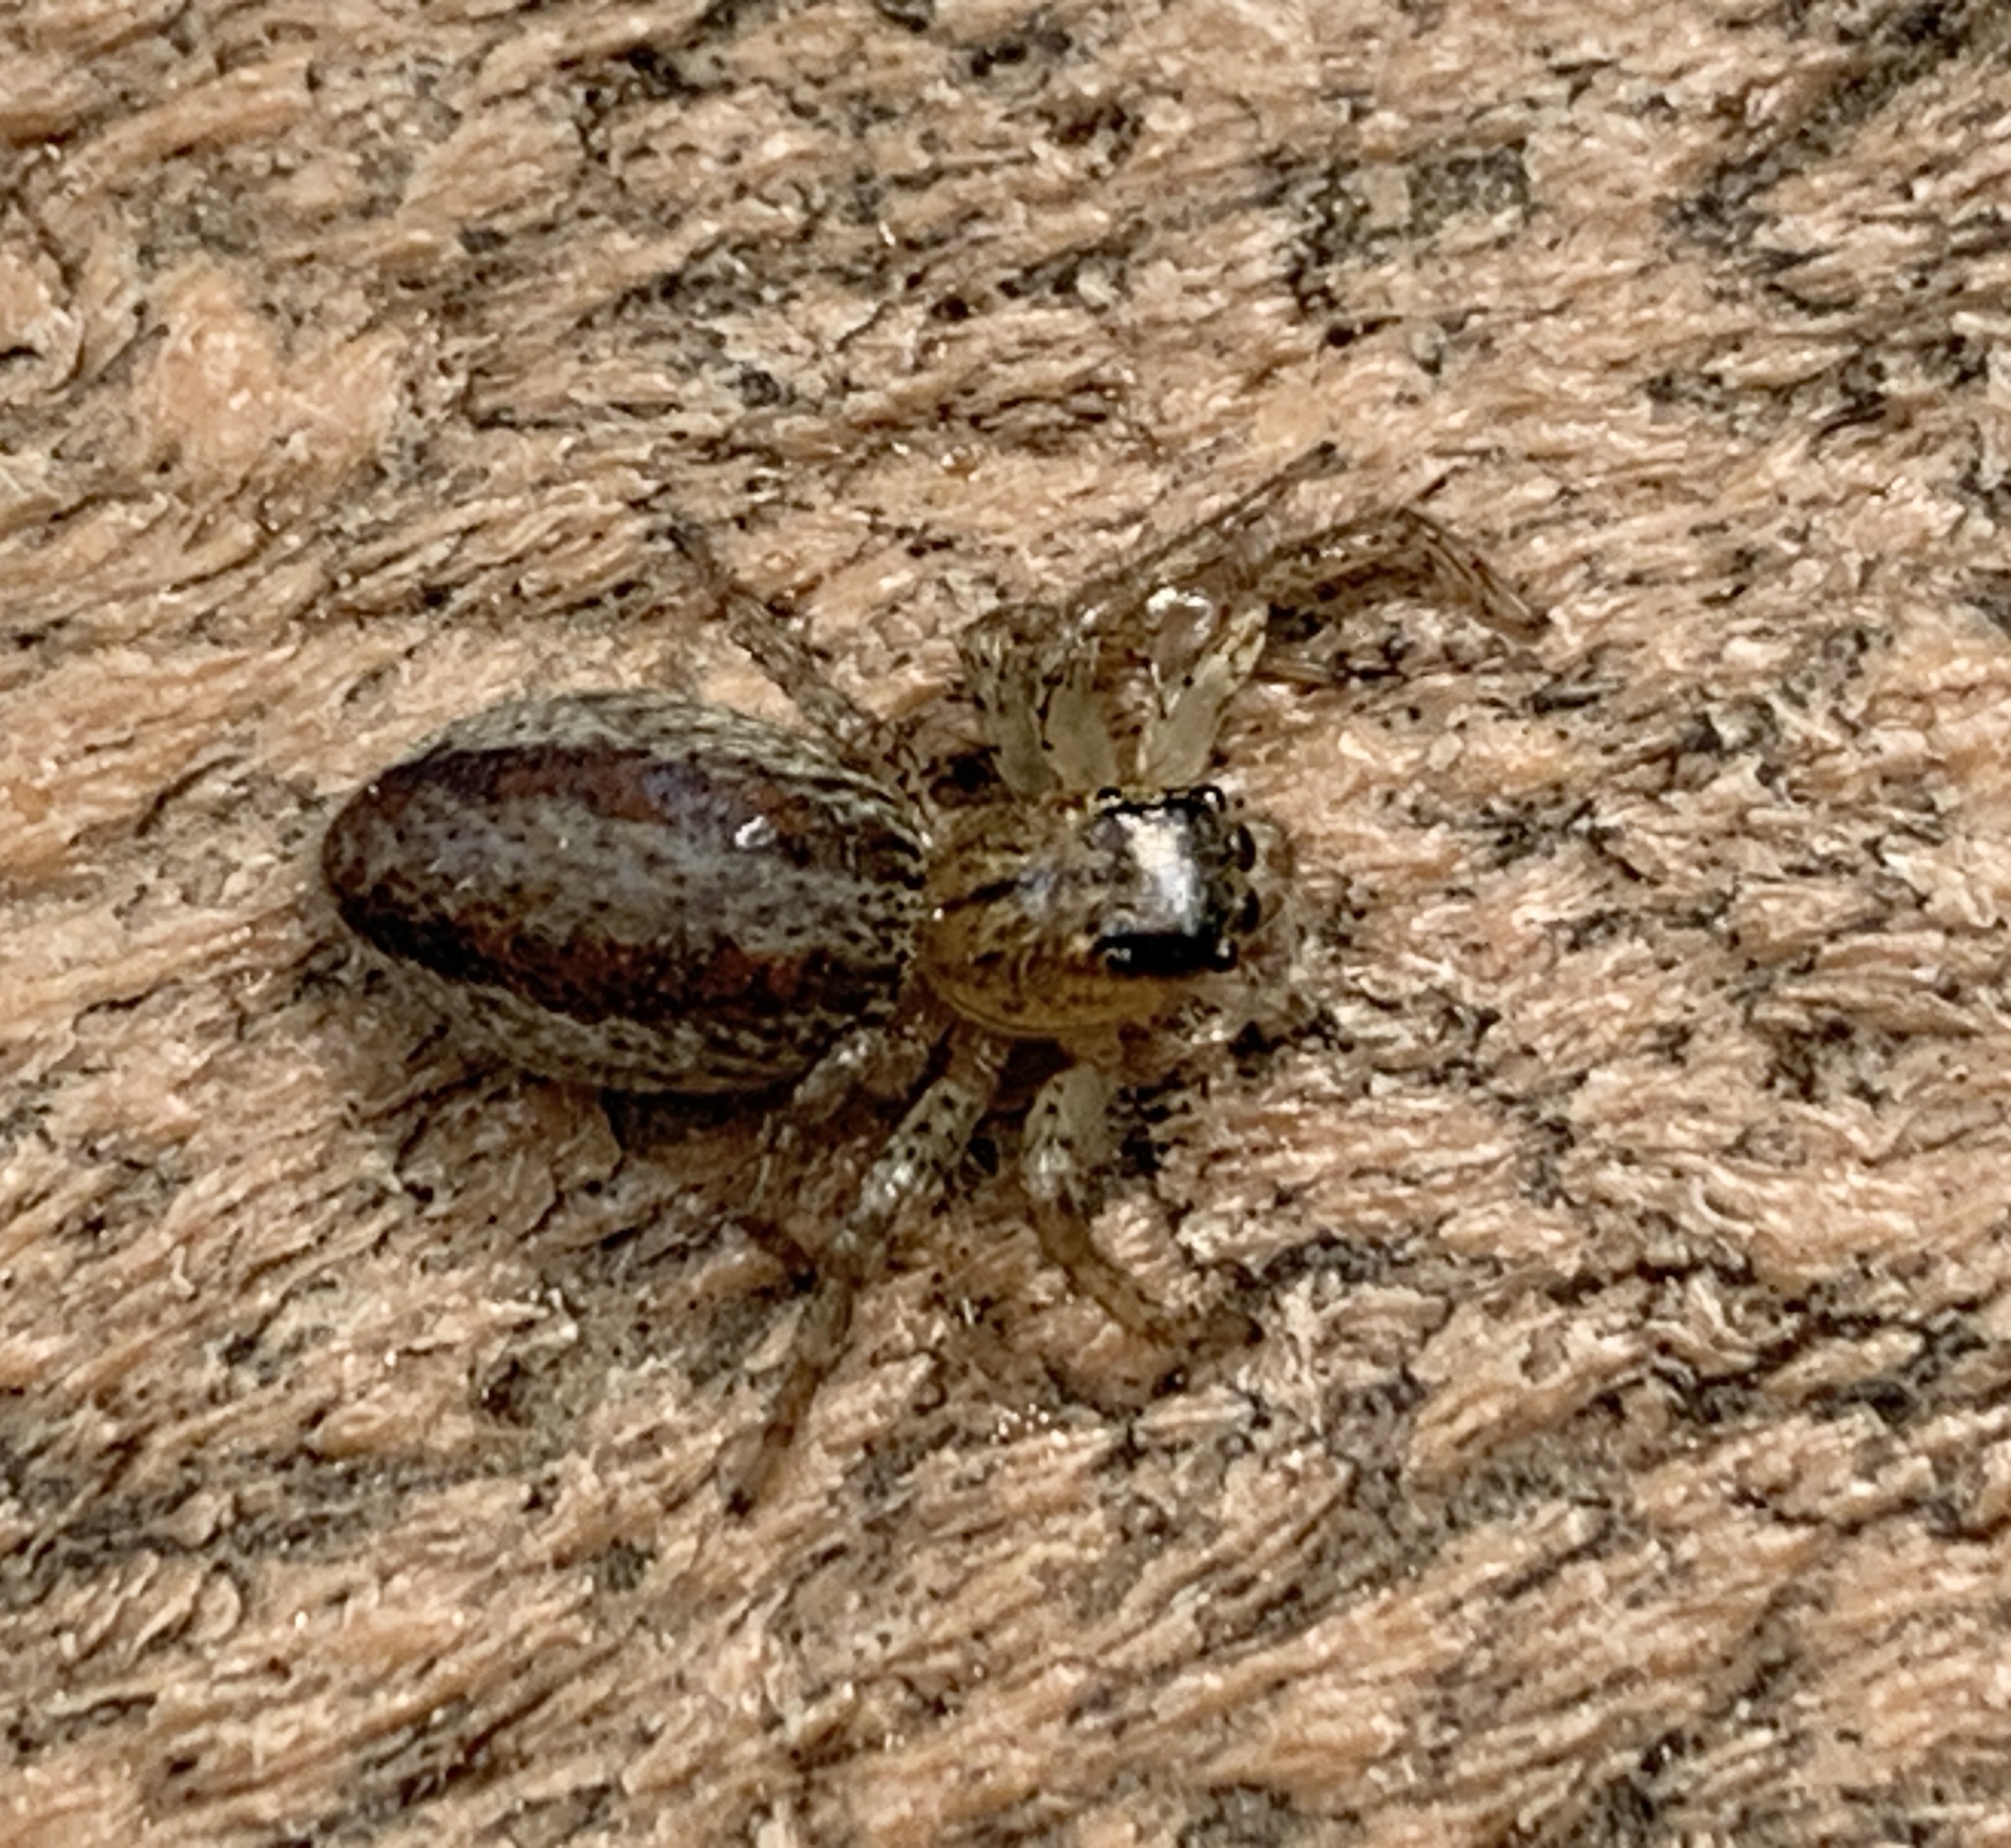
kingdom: Animalia
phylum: Arthropoda
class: Arachnida
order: Araneae
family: Salticidae
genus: Maevia
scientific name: Maevia inclemens
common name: Dimorphic jumper
